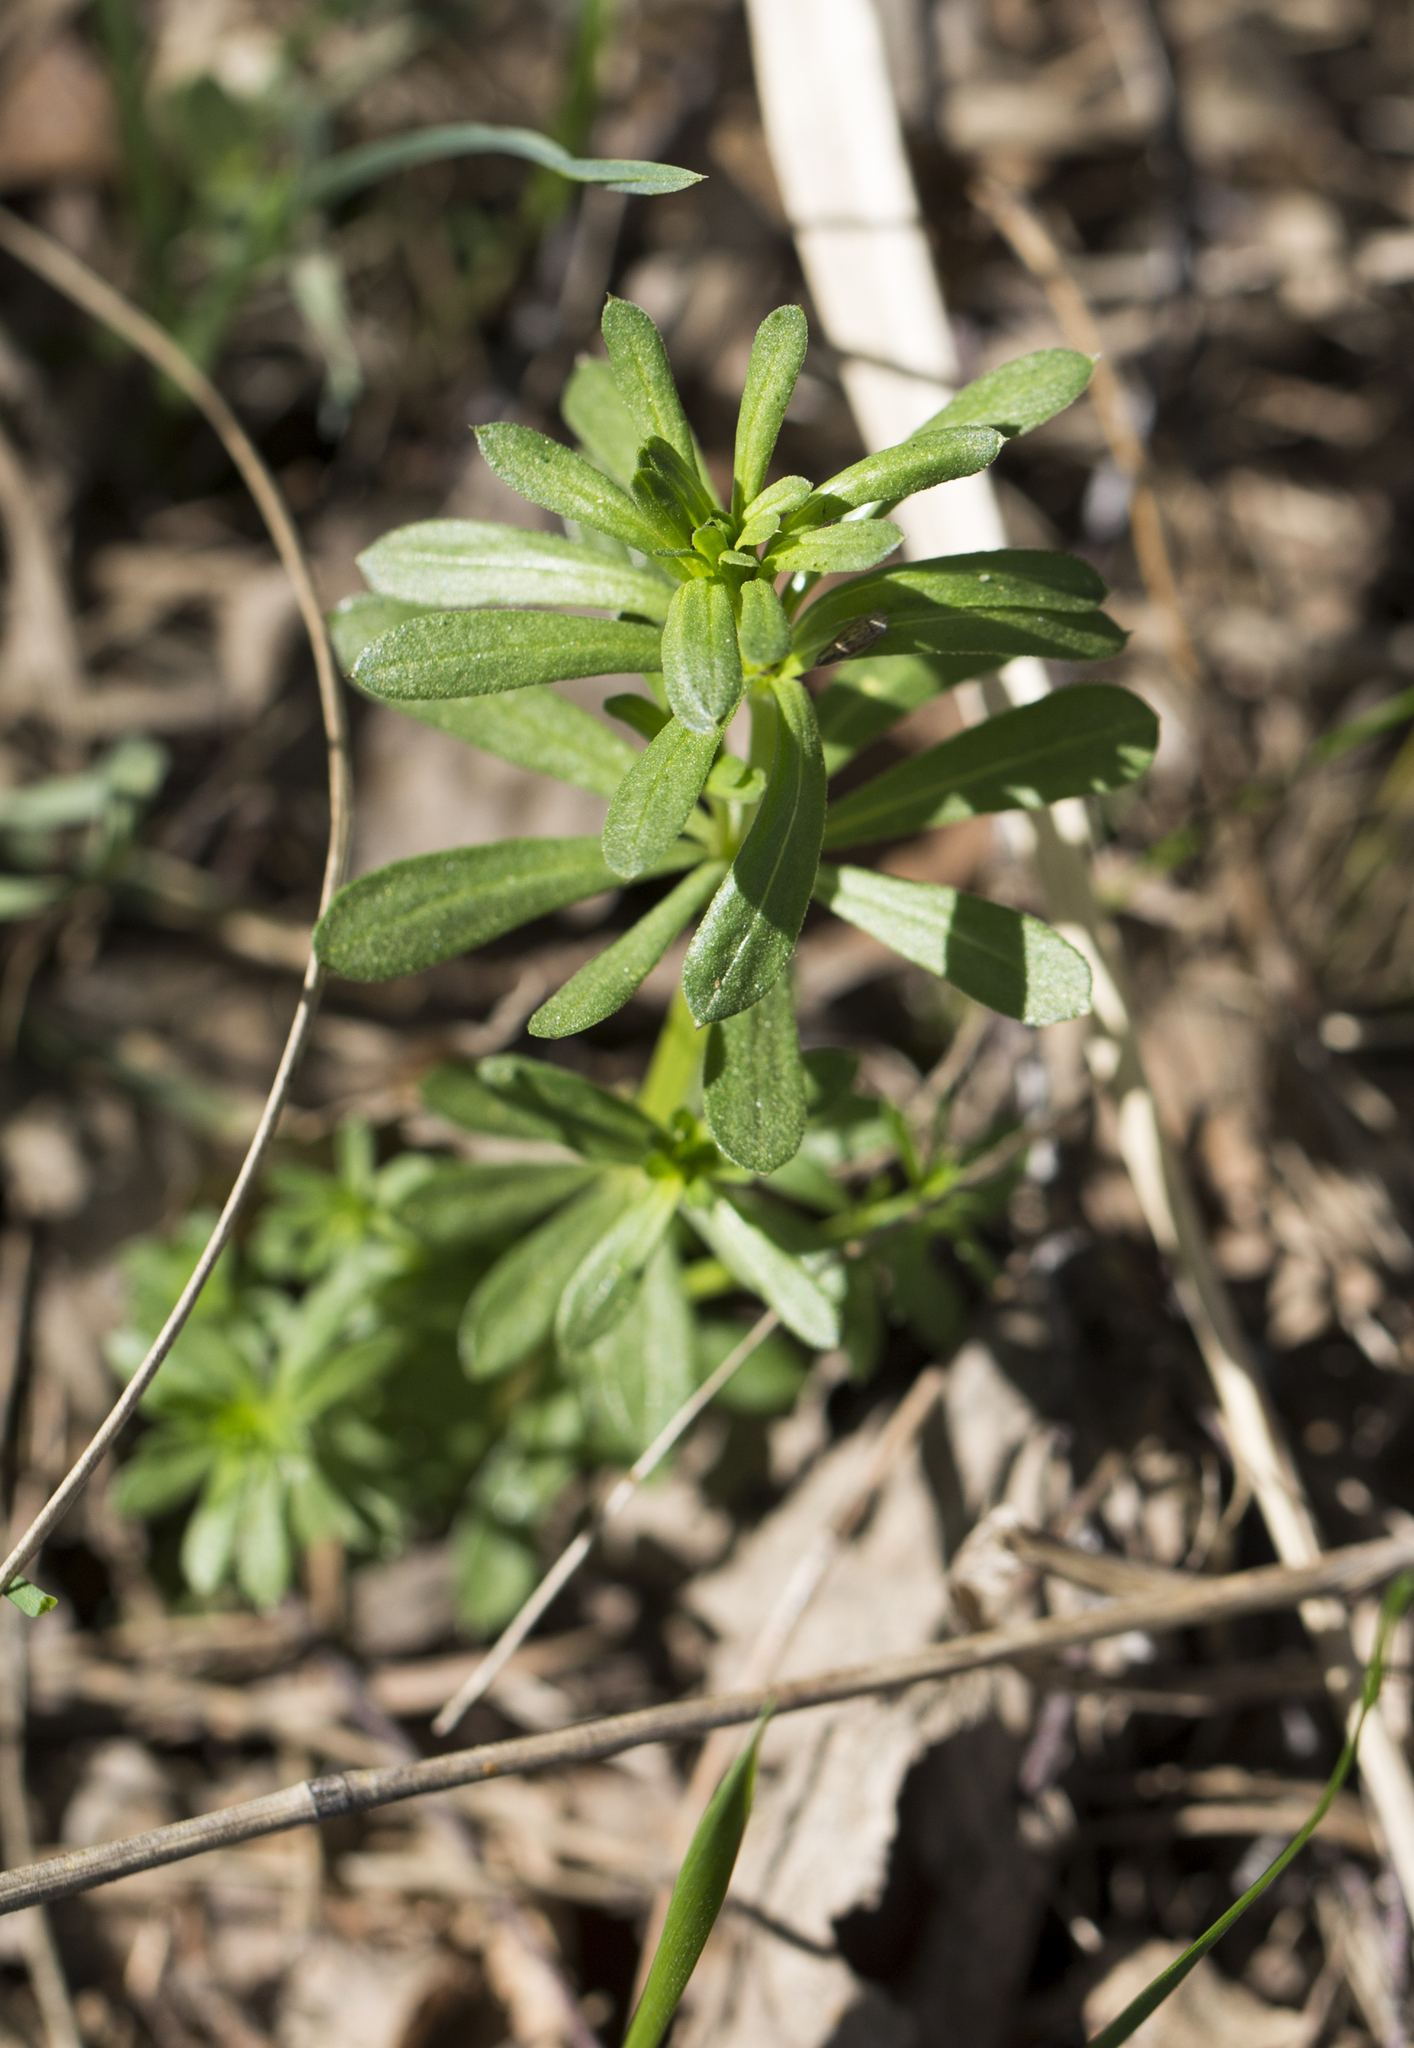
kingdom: Plantae
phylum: Tracheophyta
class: Magnoliopsida
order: Gentianales
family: Rubiaceae
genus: Galium
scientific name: Galium mollugo
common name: Hedge bedstraw
